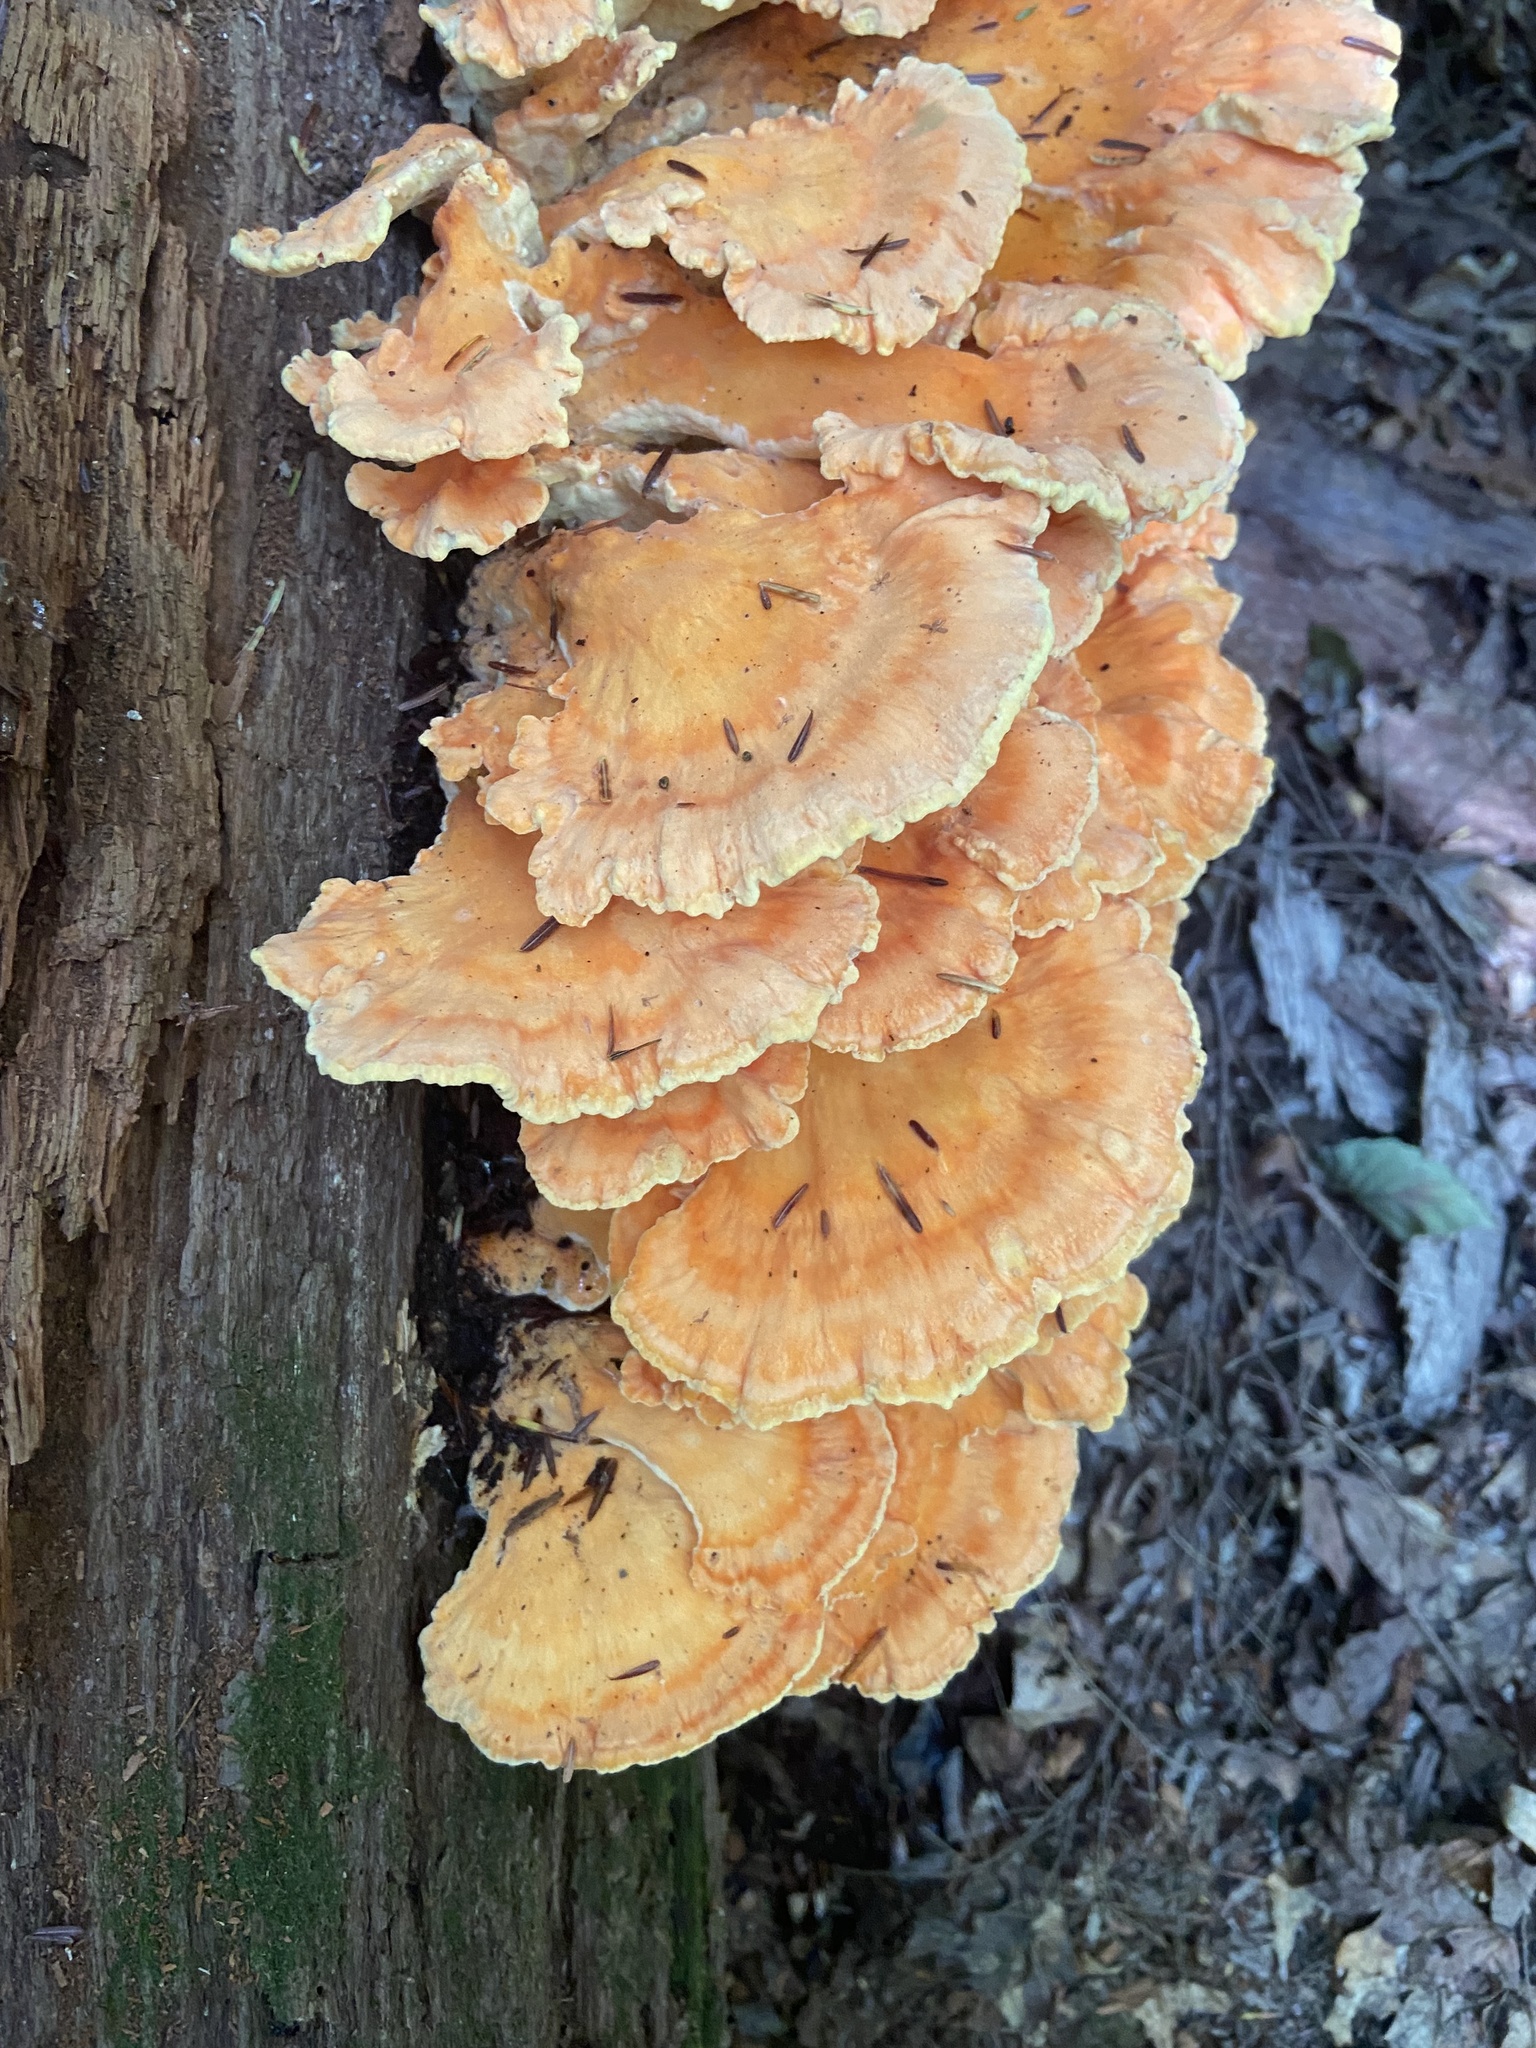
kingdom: Fungi
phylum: Basidiomycota
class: Agaricomycetes
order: Polyporales
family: Laetiporaceae
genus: Laetiporus
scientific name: Laetiporus sulphureus
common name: Chicken of the woods
